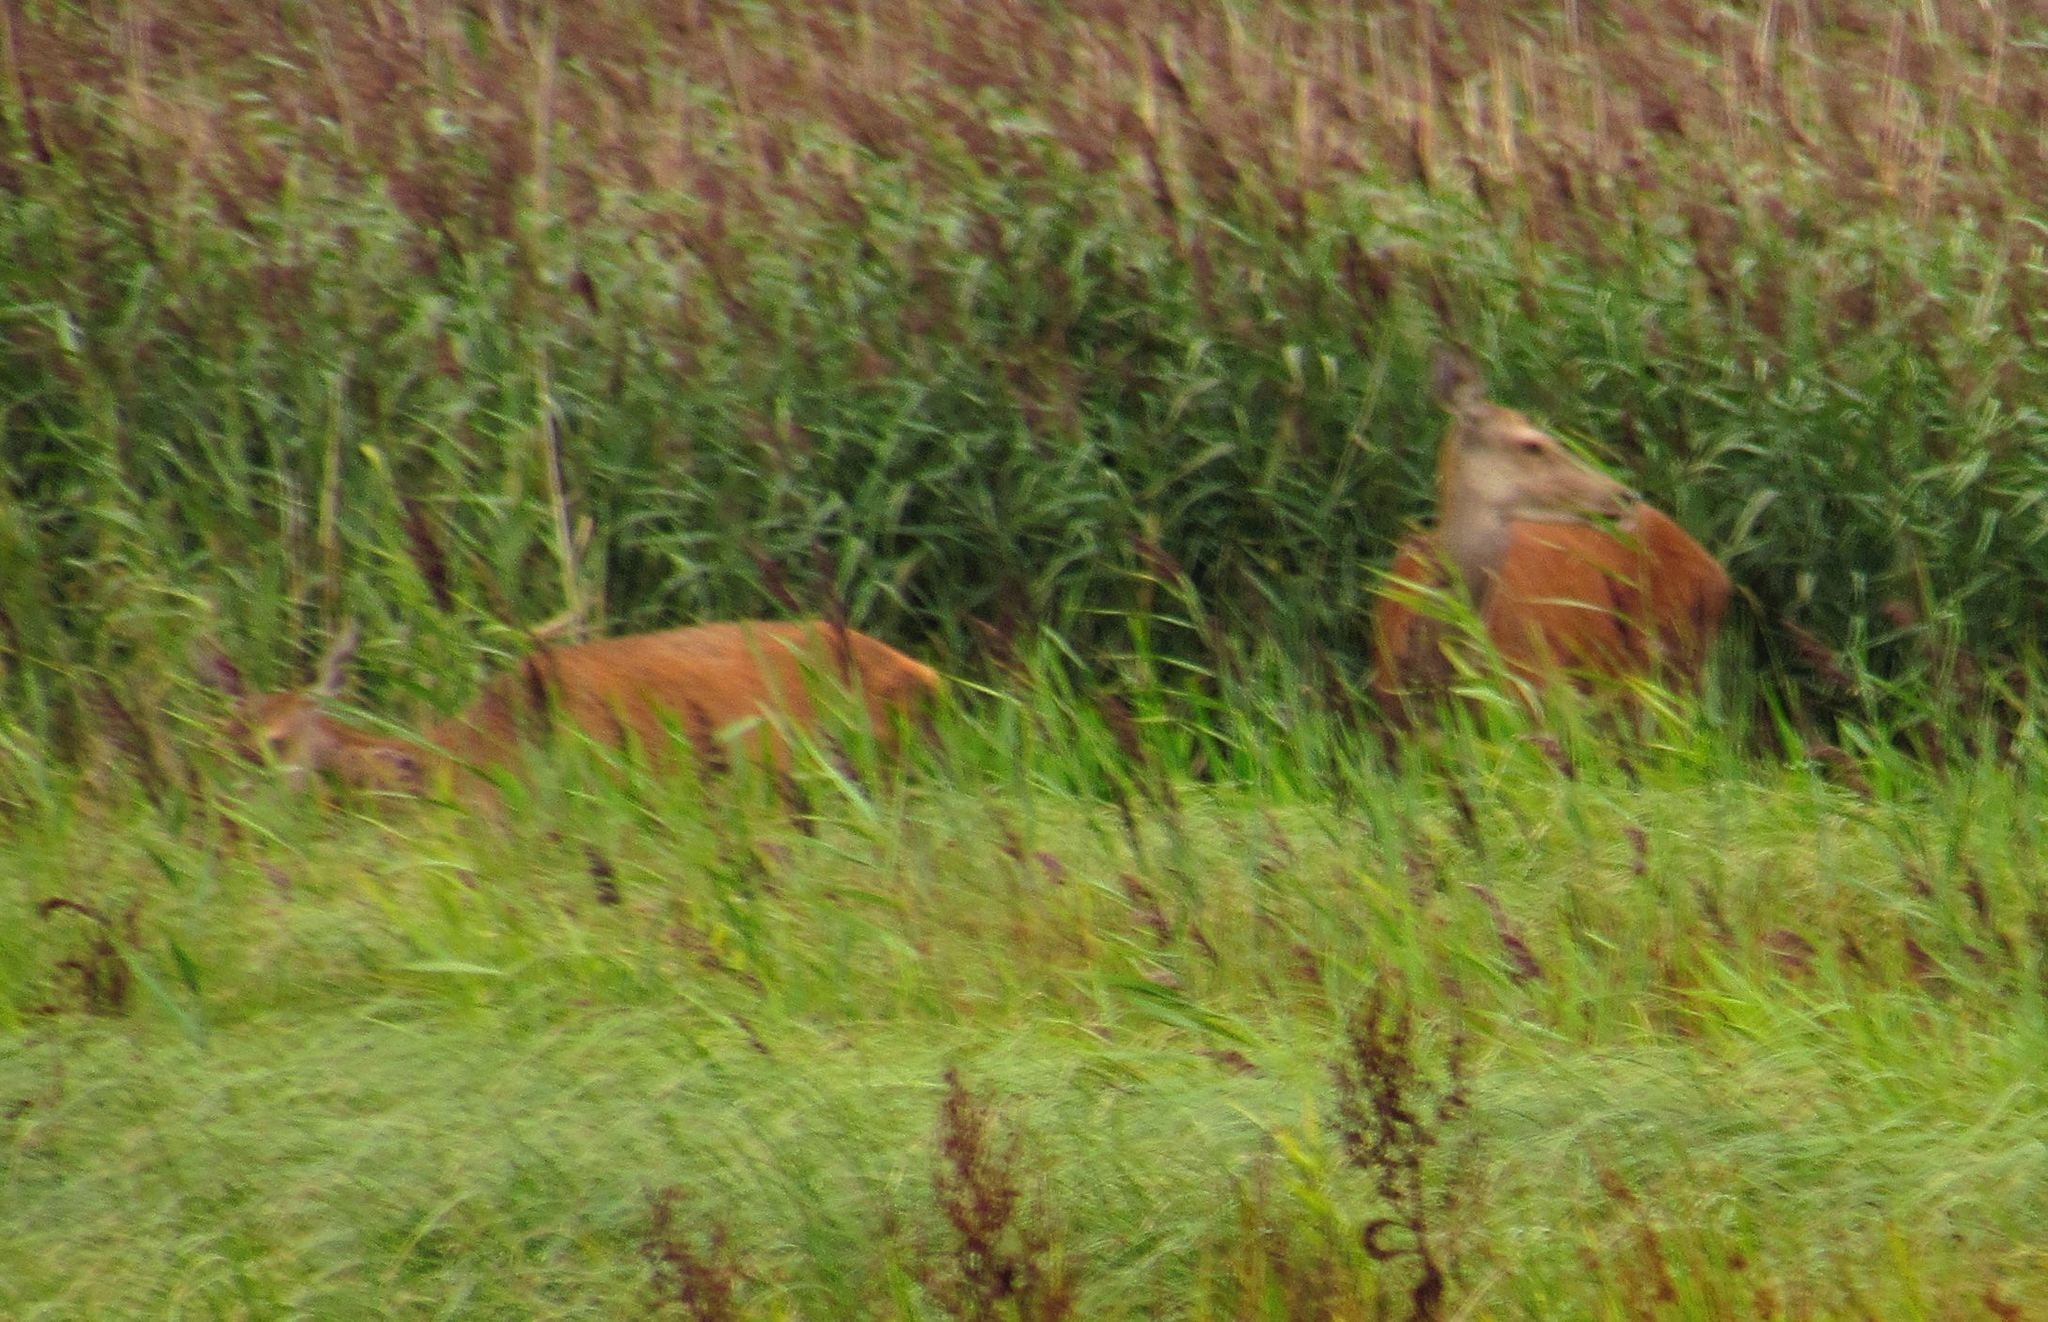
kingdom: Animalia
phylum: Chordata
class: Mammalia
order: Artiodactyla
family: Cervidae
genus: Cervus
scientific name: Cervus elaphus
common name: Red deer
